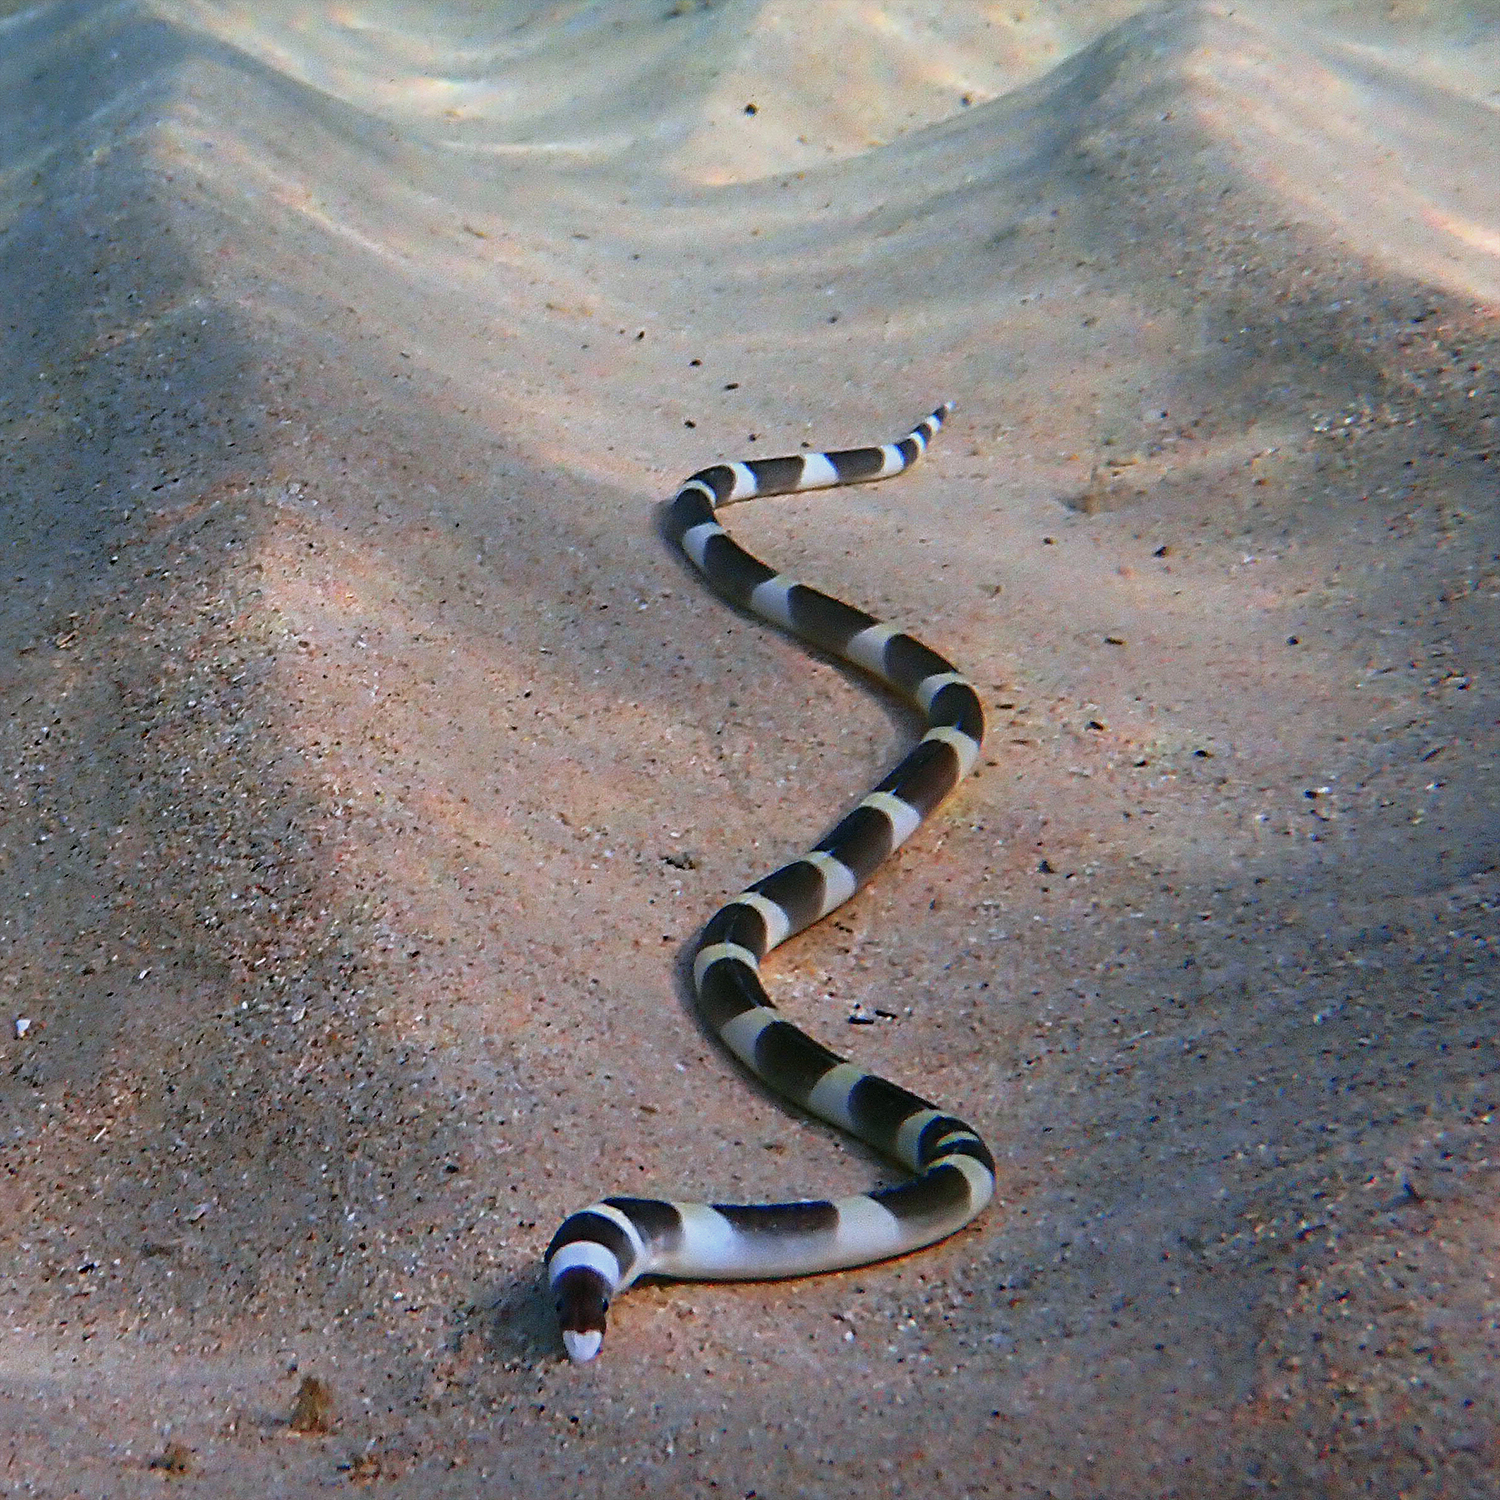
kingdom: Animalia
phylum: Chordata
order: Anguilliformes
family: Ophichthidae
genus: Leiuranus
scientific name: Leiuranus versicolor
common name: Convict snake eel
